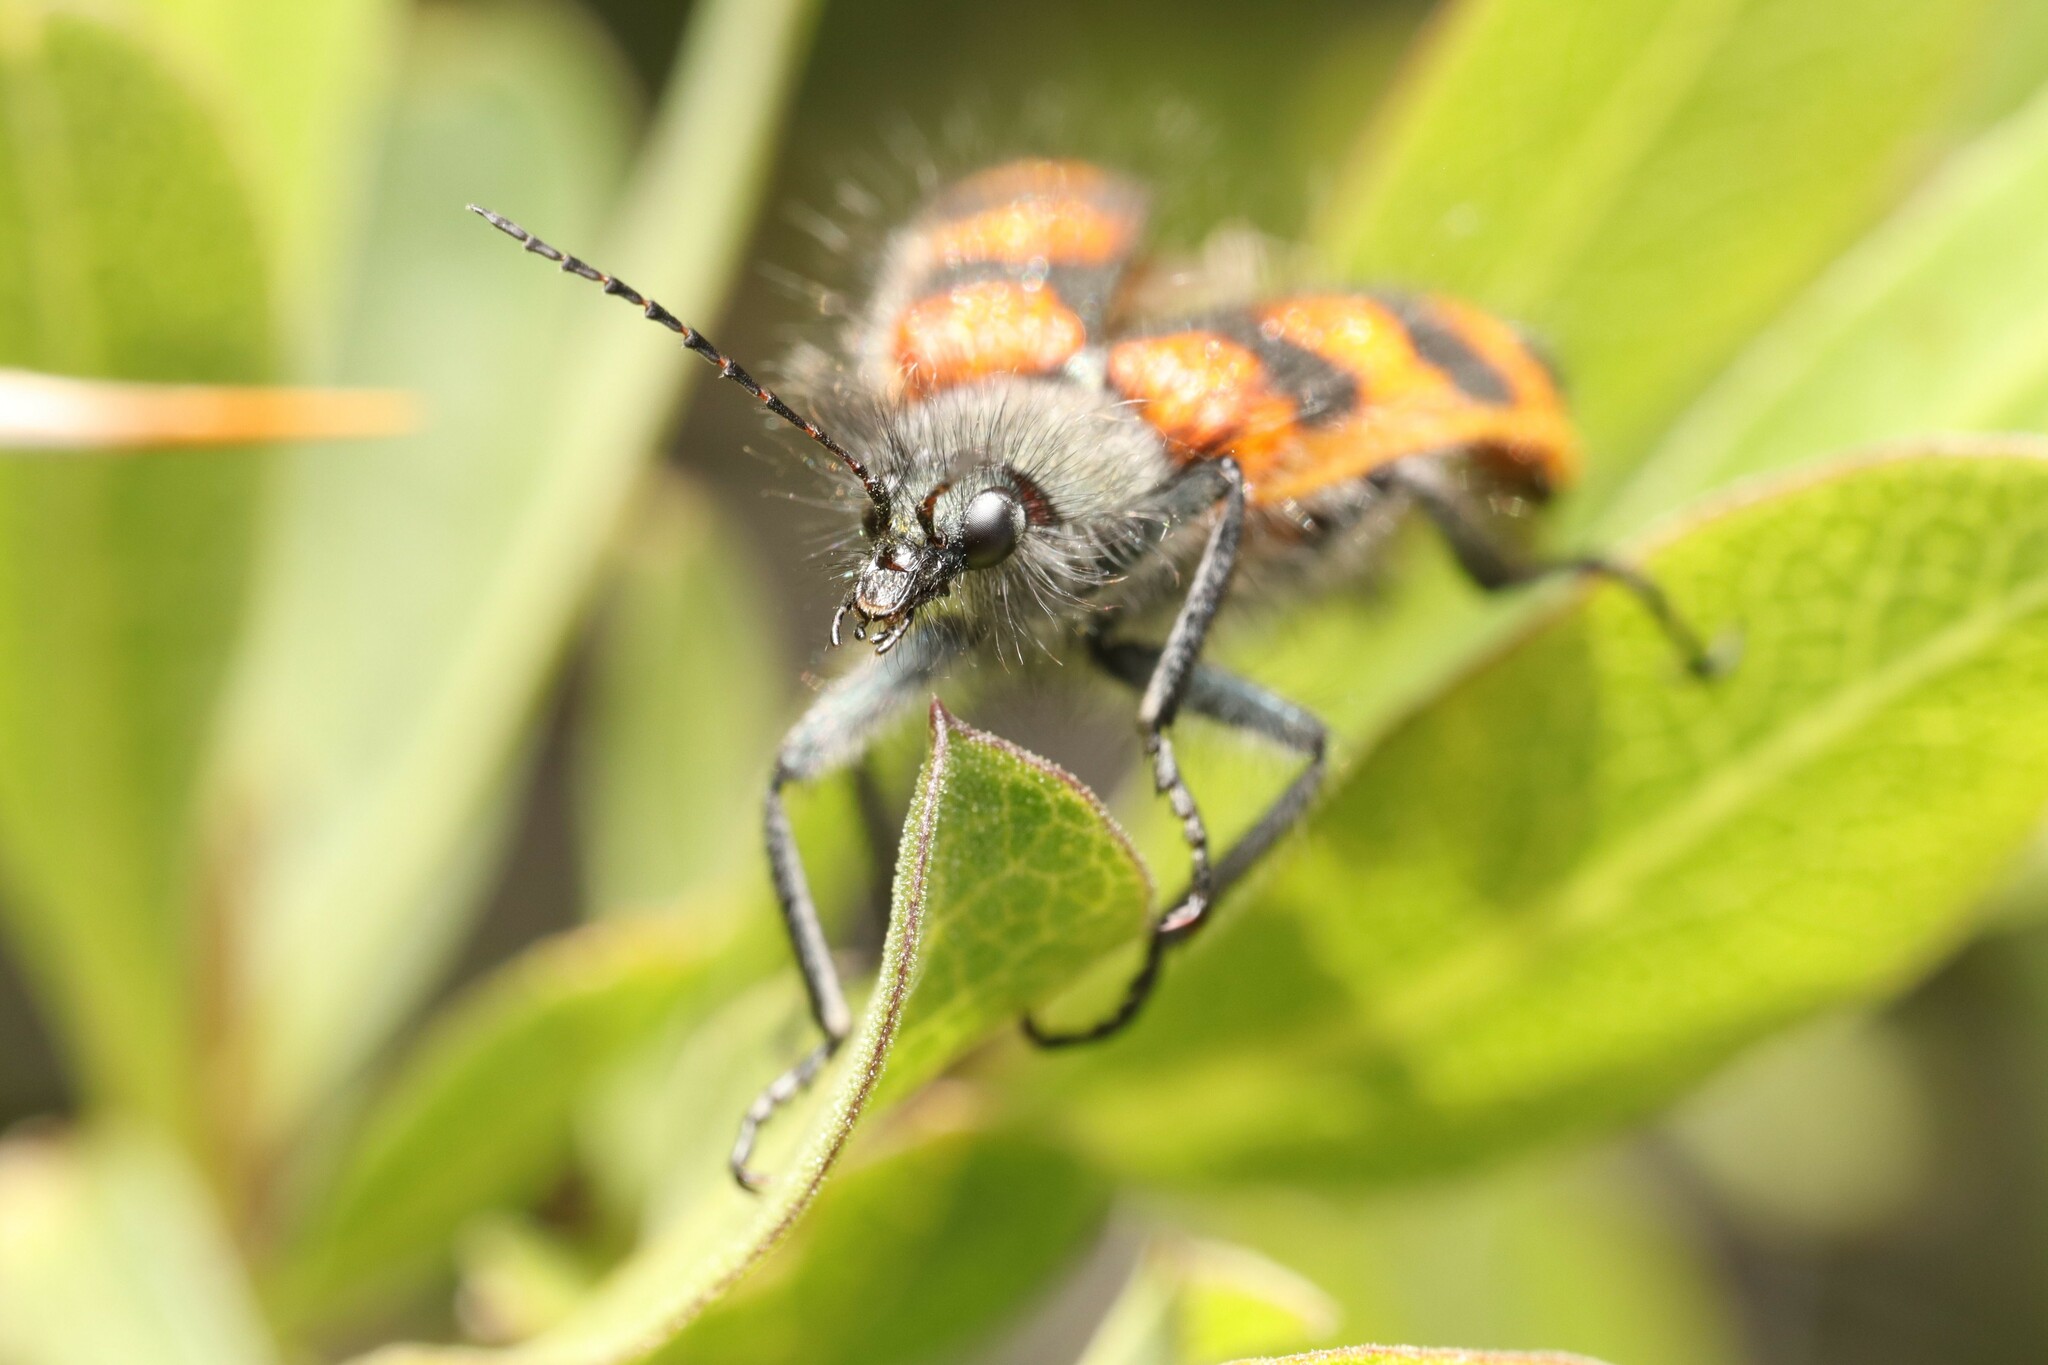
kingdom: Animalia
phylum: Arthropoda
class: Insecta
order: Coleoptera
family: Melyridae
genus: Astylus
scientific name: Astylus
